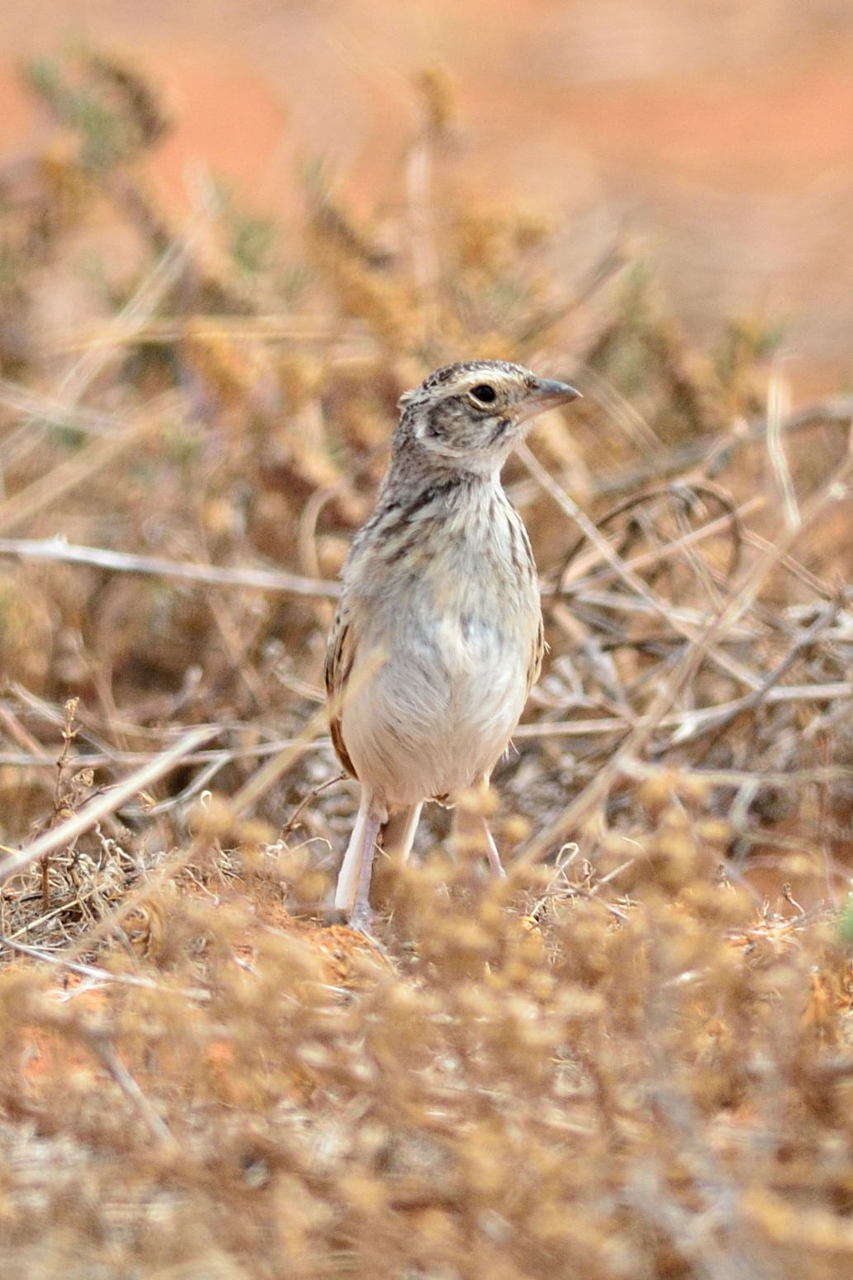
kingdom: Animalia
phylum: Chordata
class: Aves
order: Passeriformes
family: Alaudidae
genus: Mirafra
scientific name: Mirafra javanica
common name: Horsfield's bush lark
